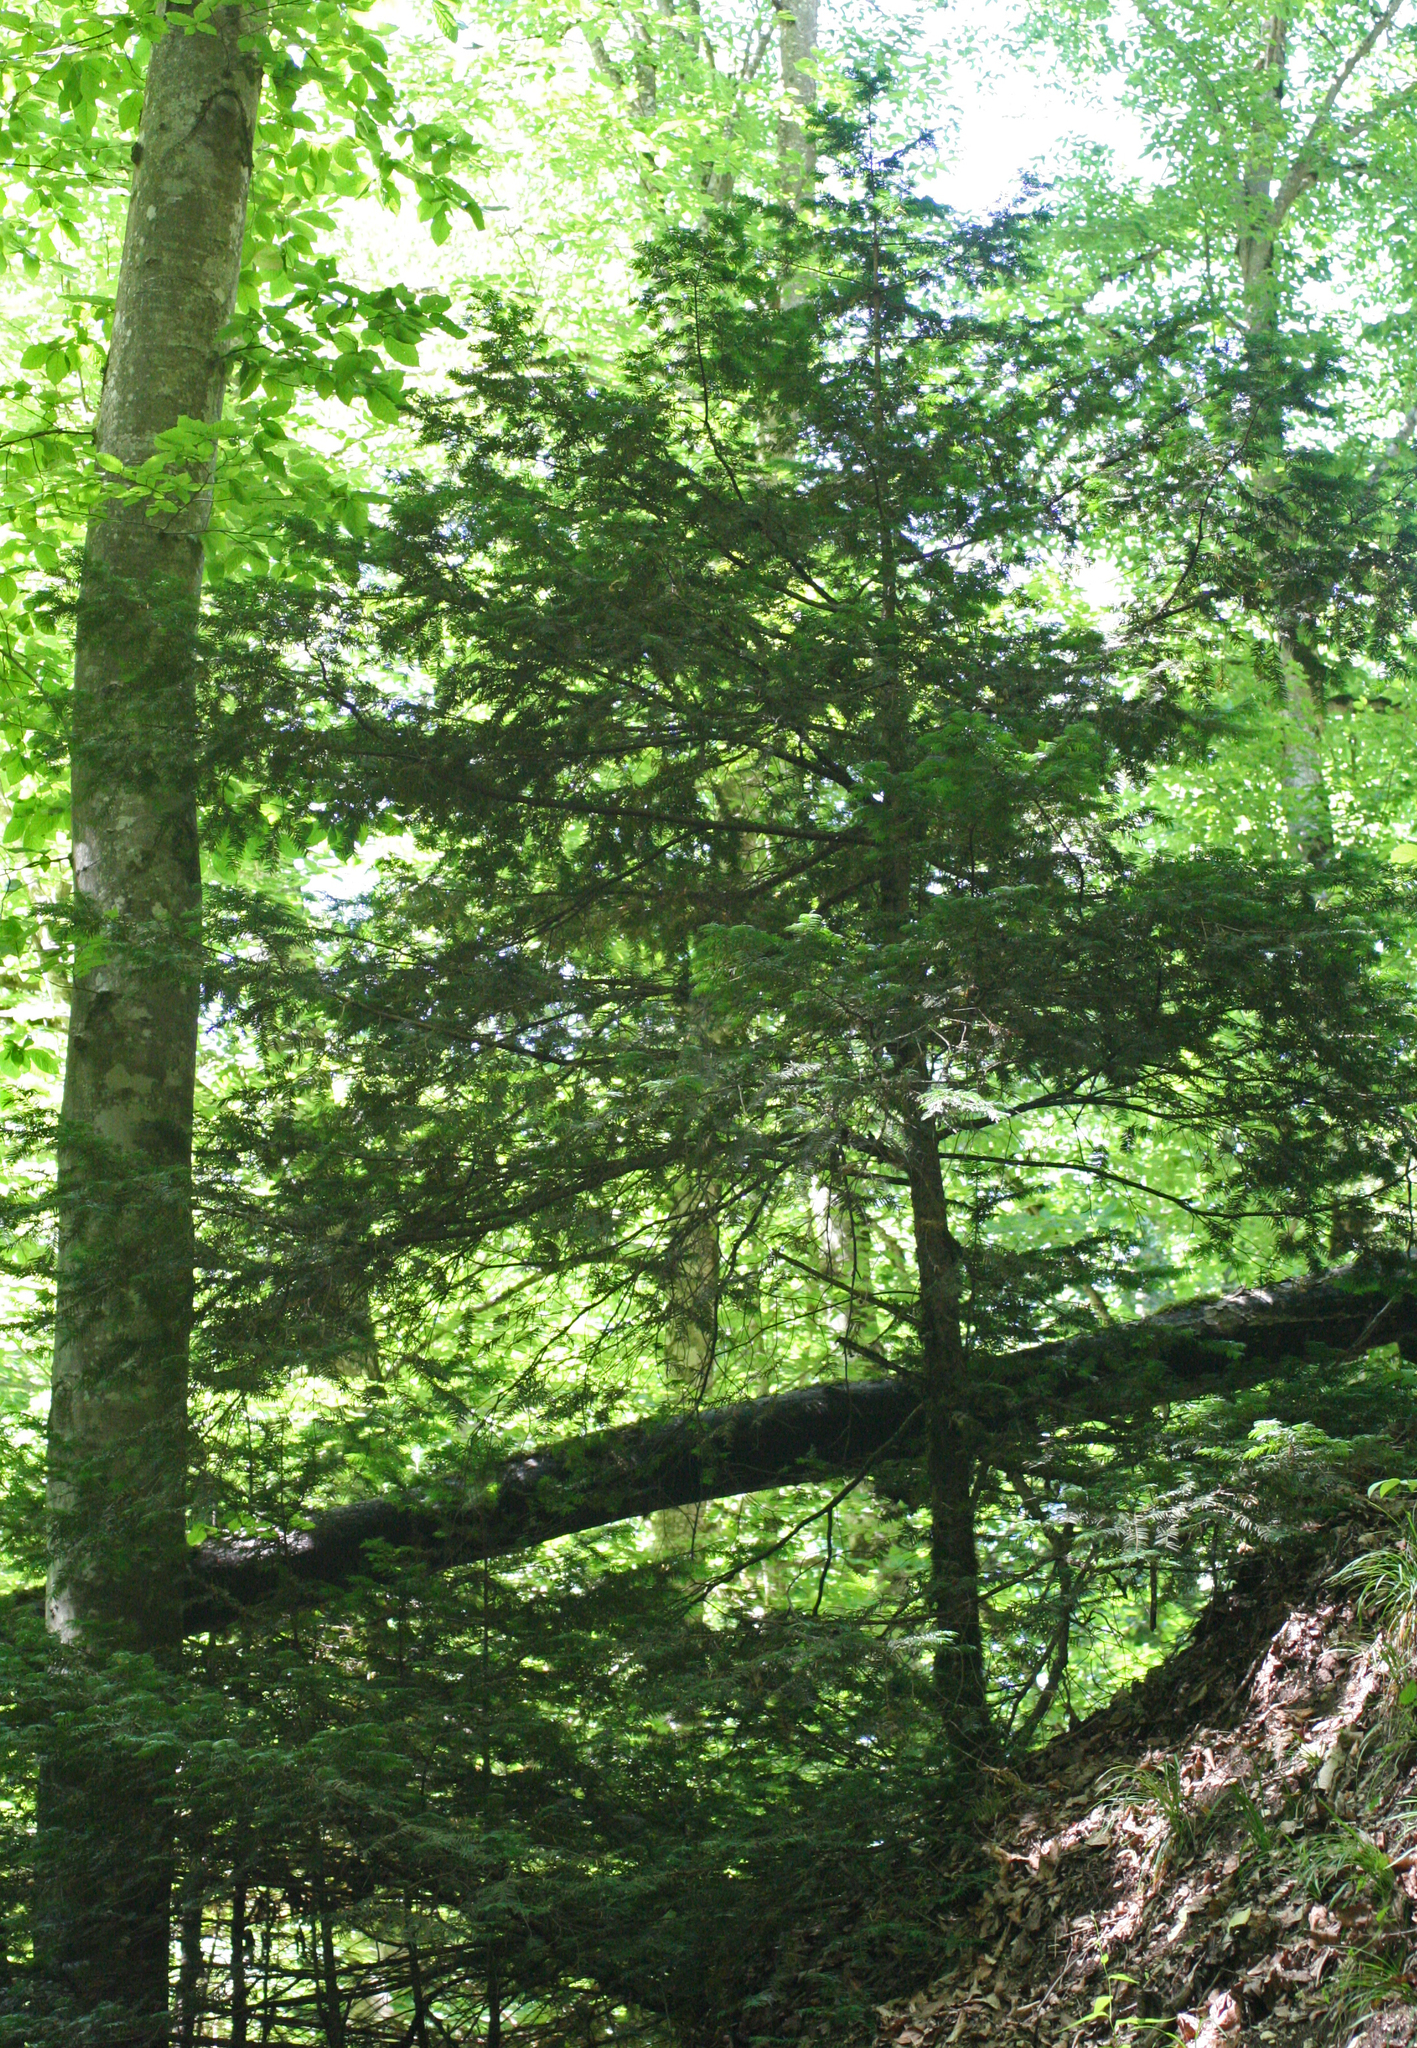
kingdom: Plantae
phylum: Tracheophyta
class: Pinopsida
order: Pinales
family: Taxaceae
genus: Taxus
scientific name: Taxus baccata
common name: Yew
